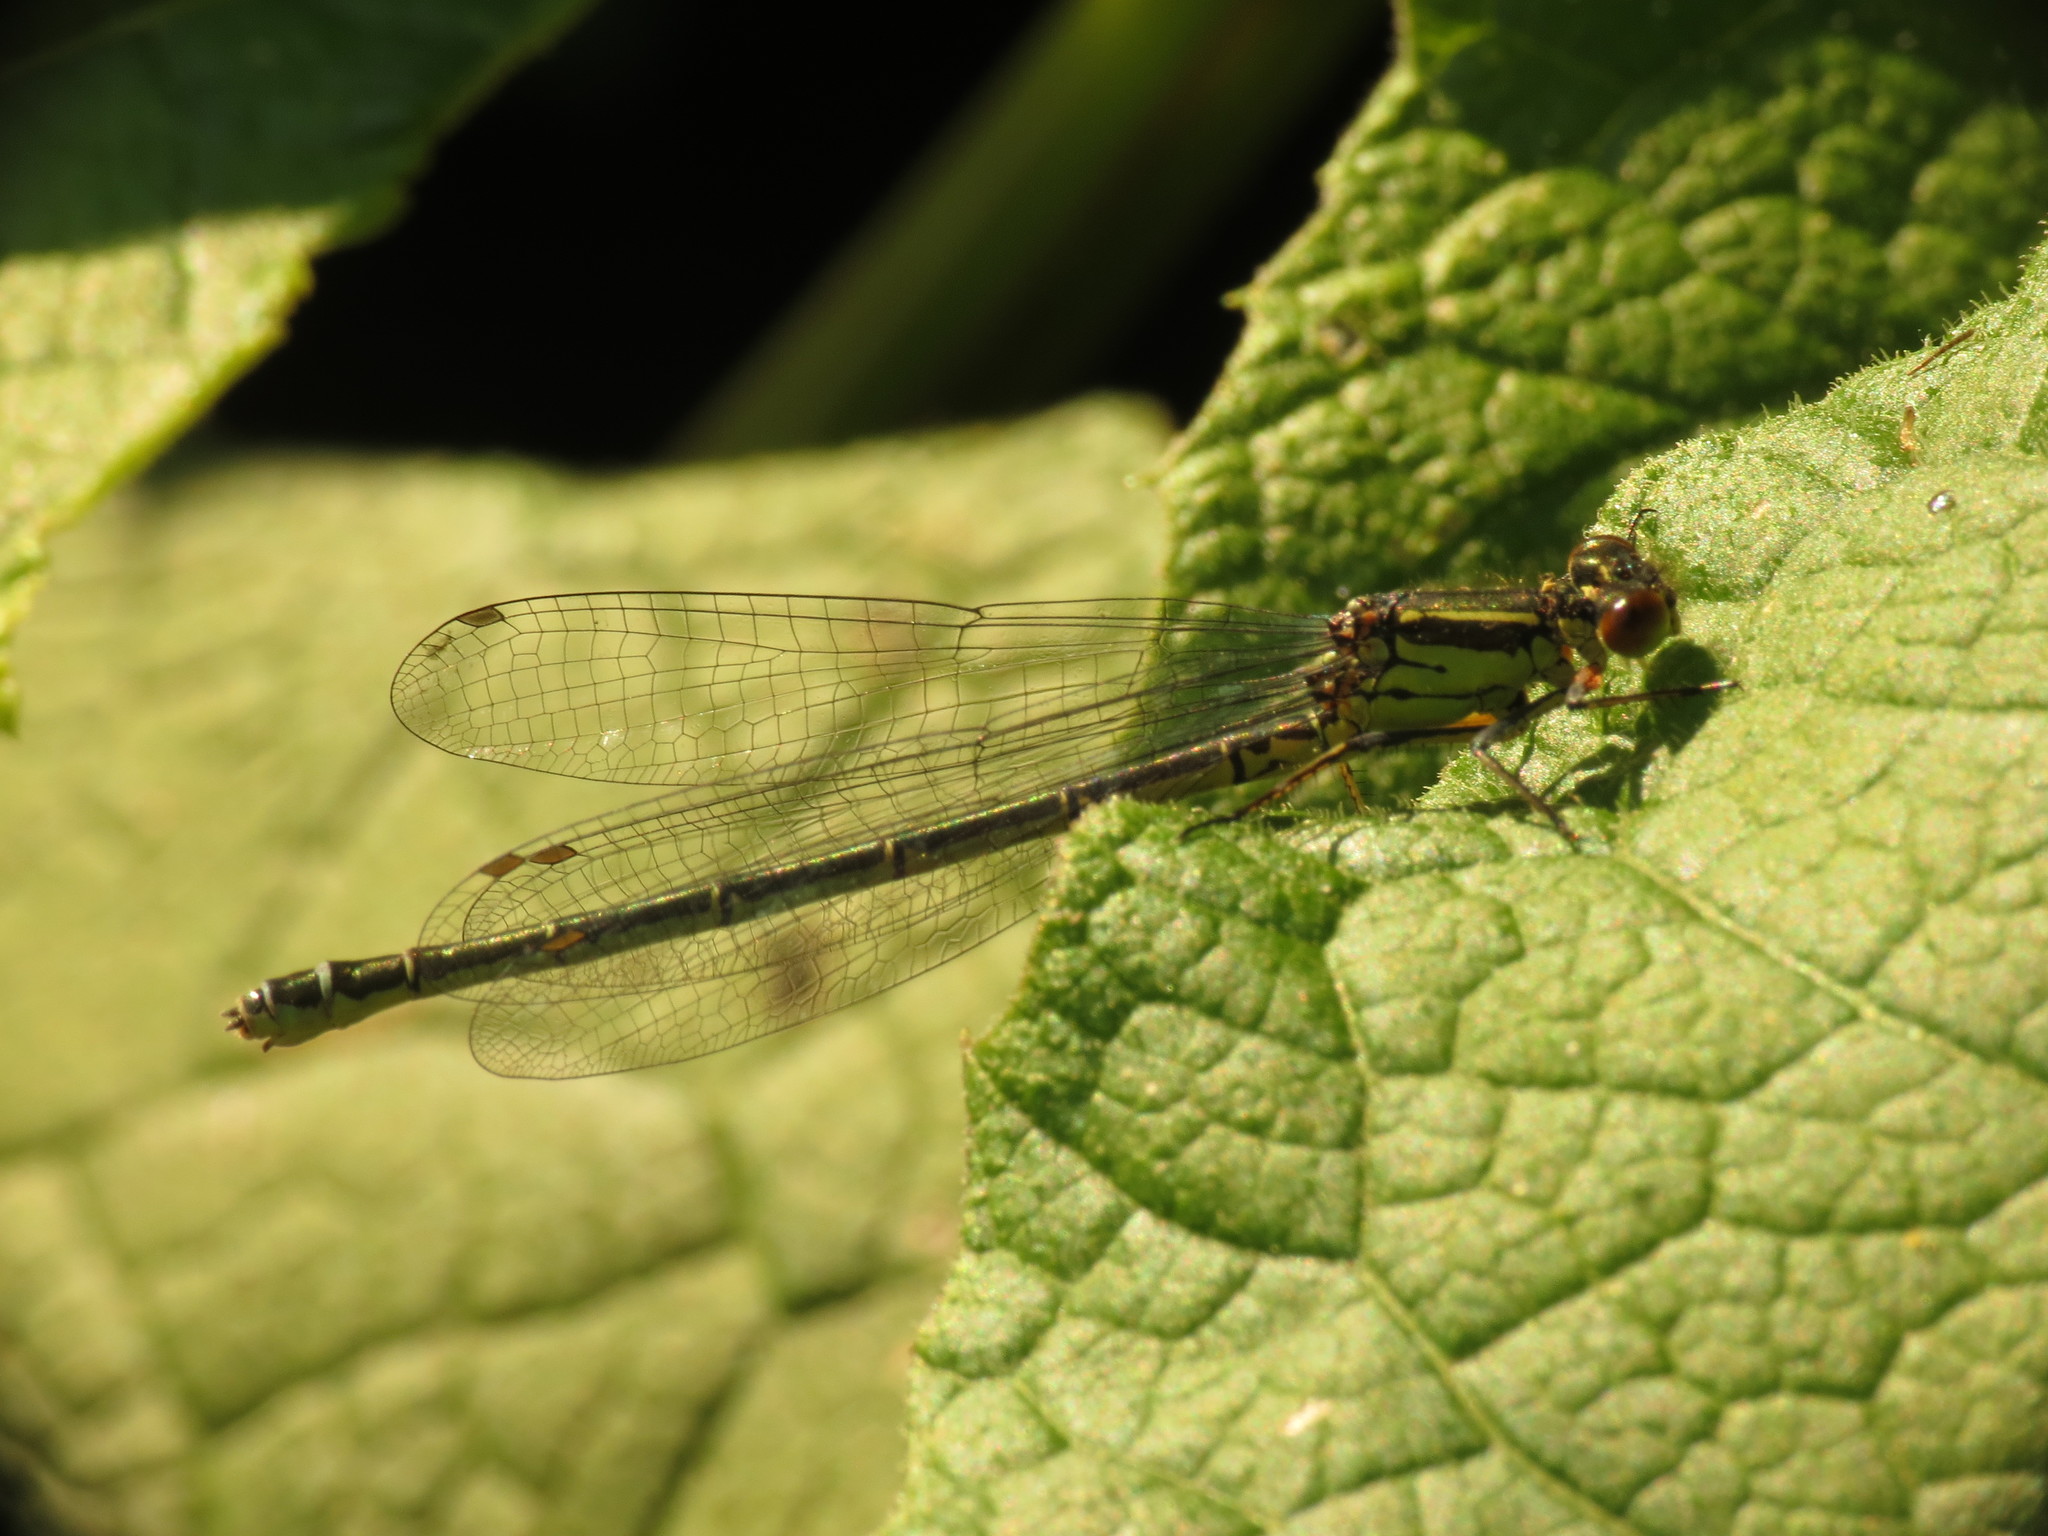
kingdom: Animalia
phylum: Arthropoda
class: Insecta
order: Odonata
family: Coenagrionidae
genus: Erythromma
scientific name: Erythromma najas
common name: Red-eyed damselfly
